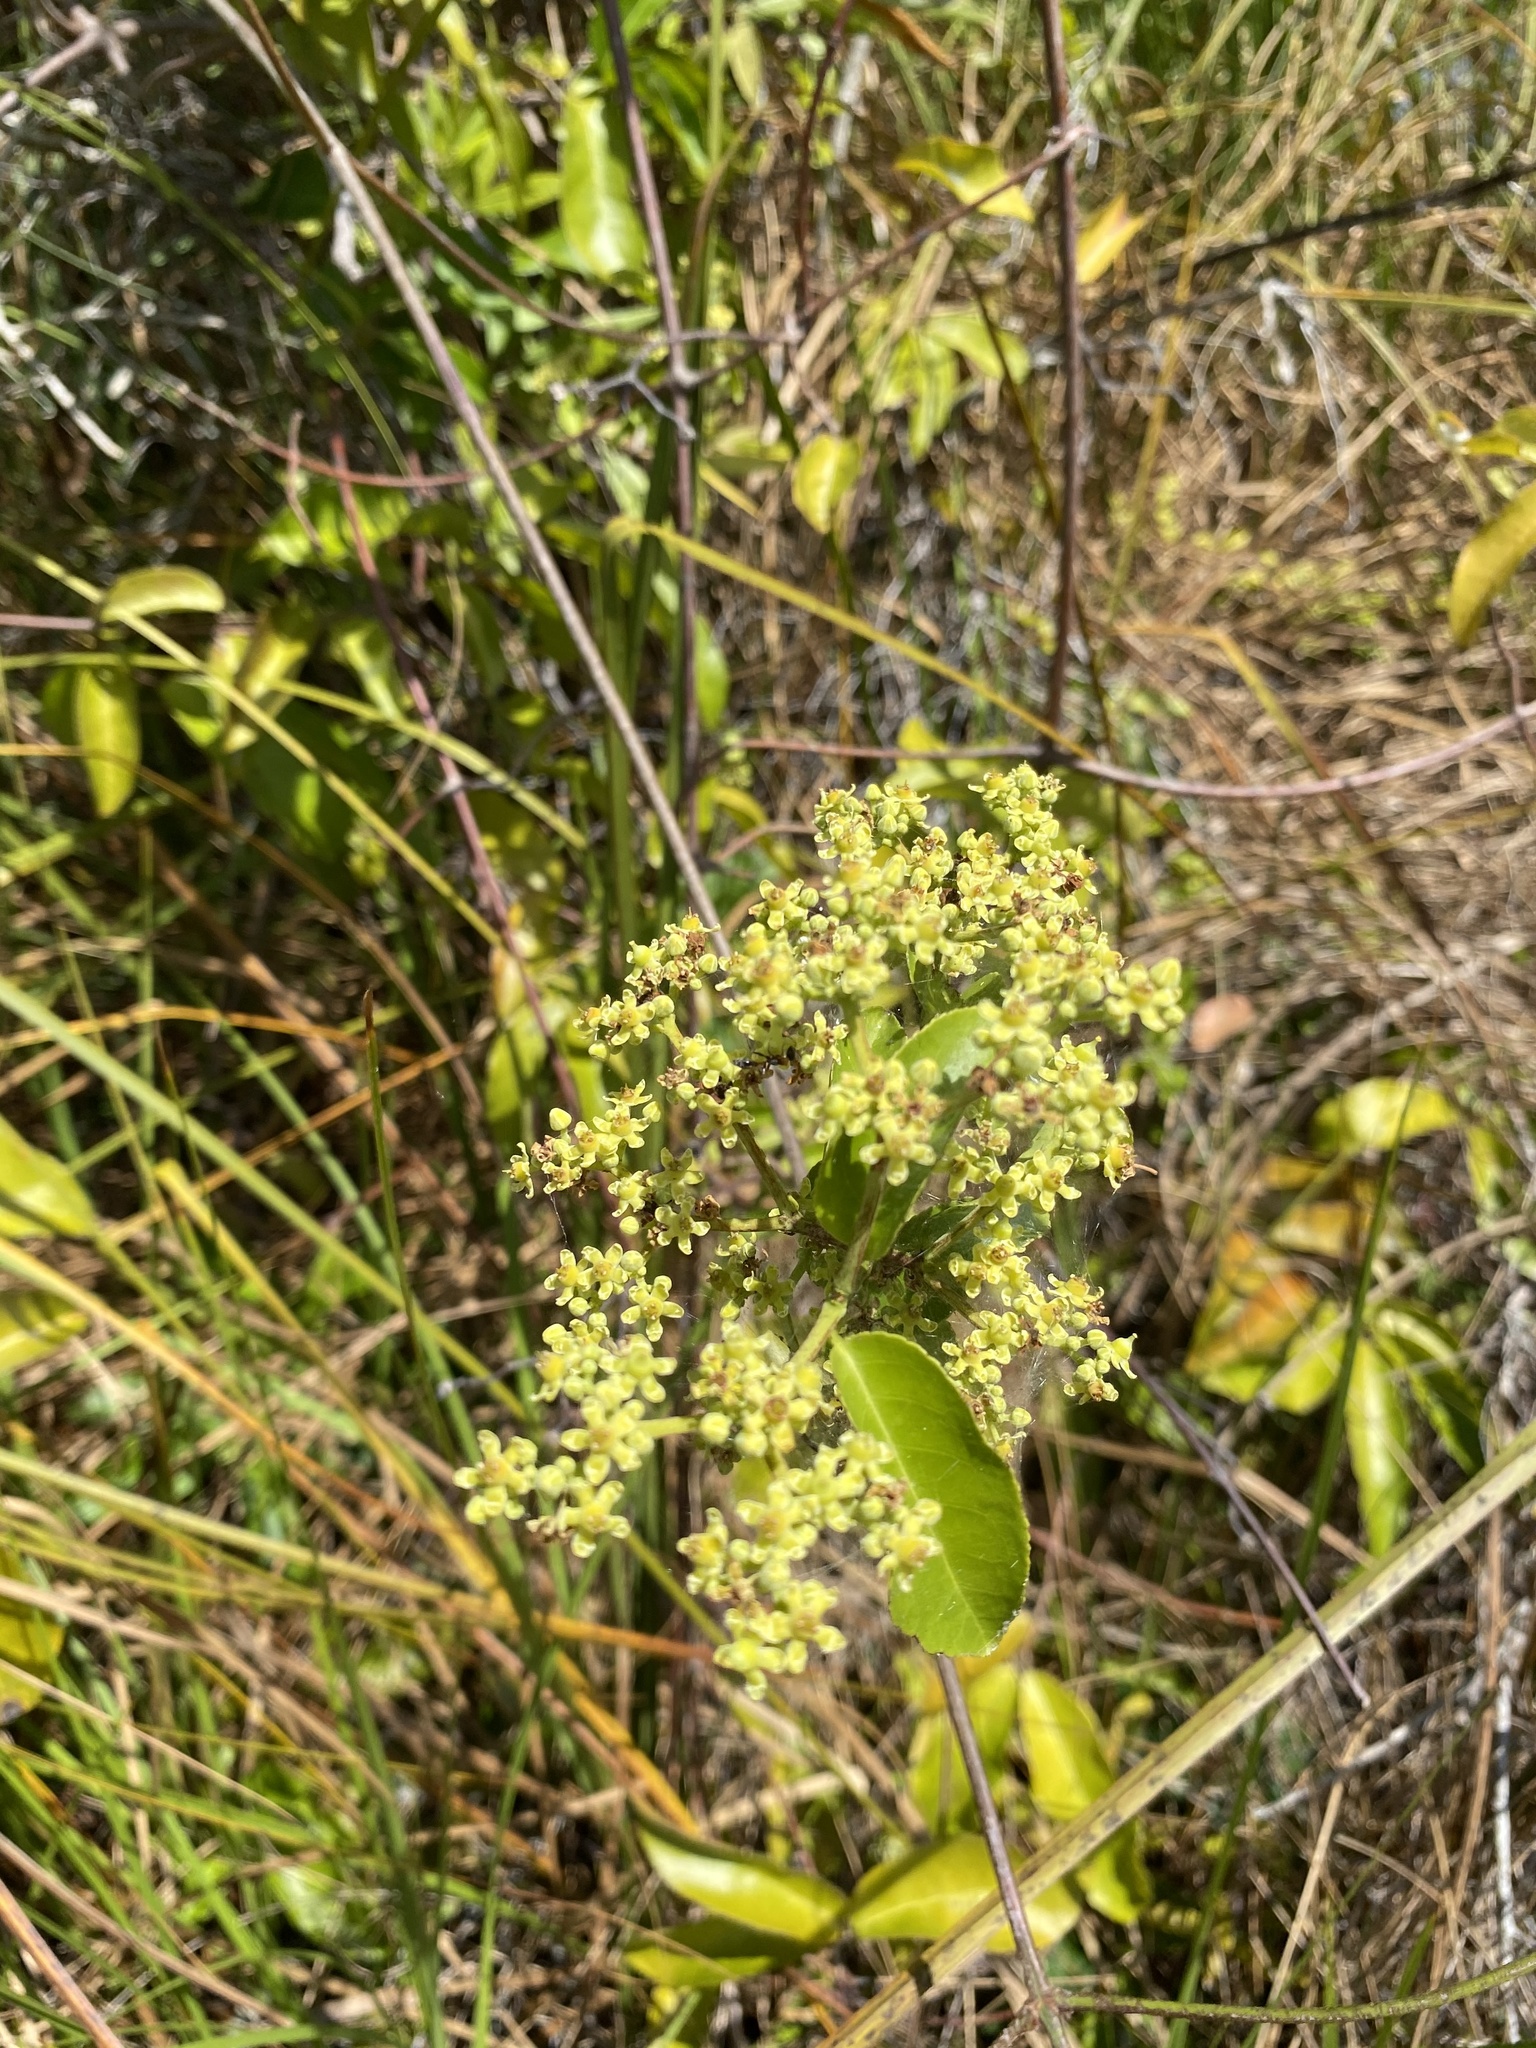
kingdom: Plantae
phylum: Tracheophyta
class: Magnoliopsida
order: Celastrales
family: Celastraceae
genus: Hippocratea
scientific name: Hippocratea volubilis
